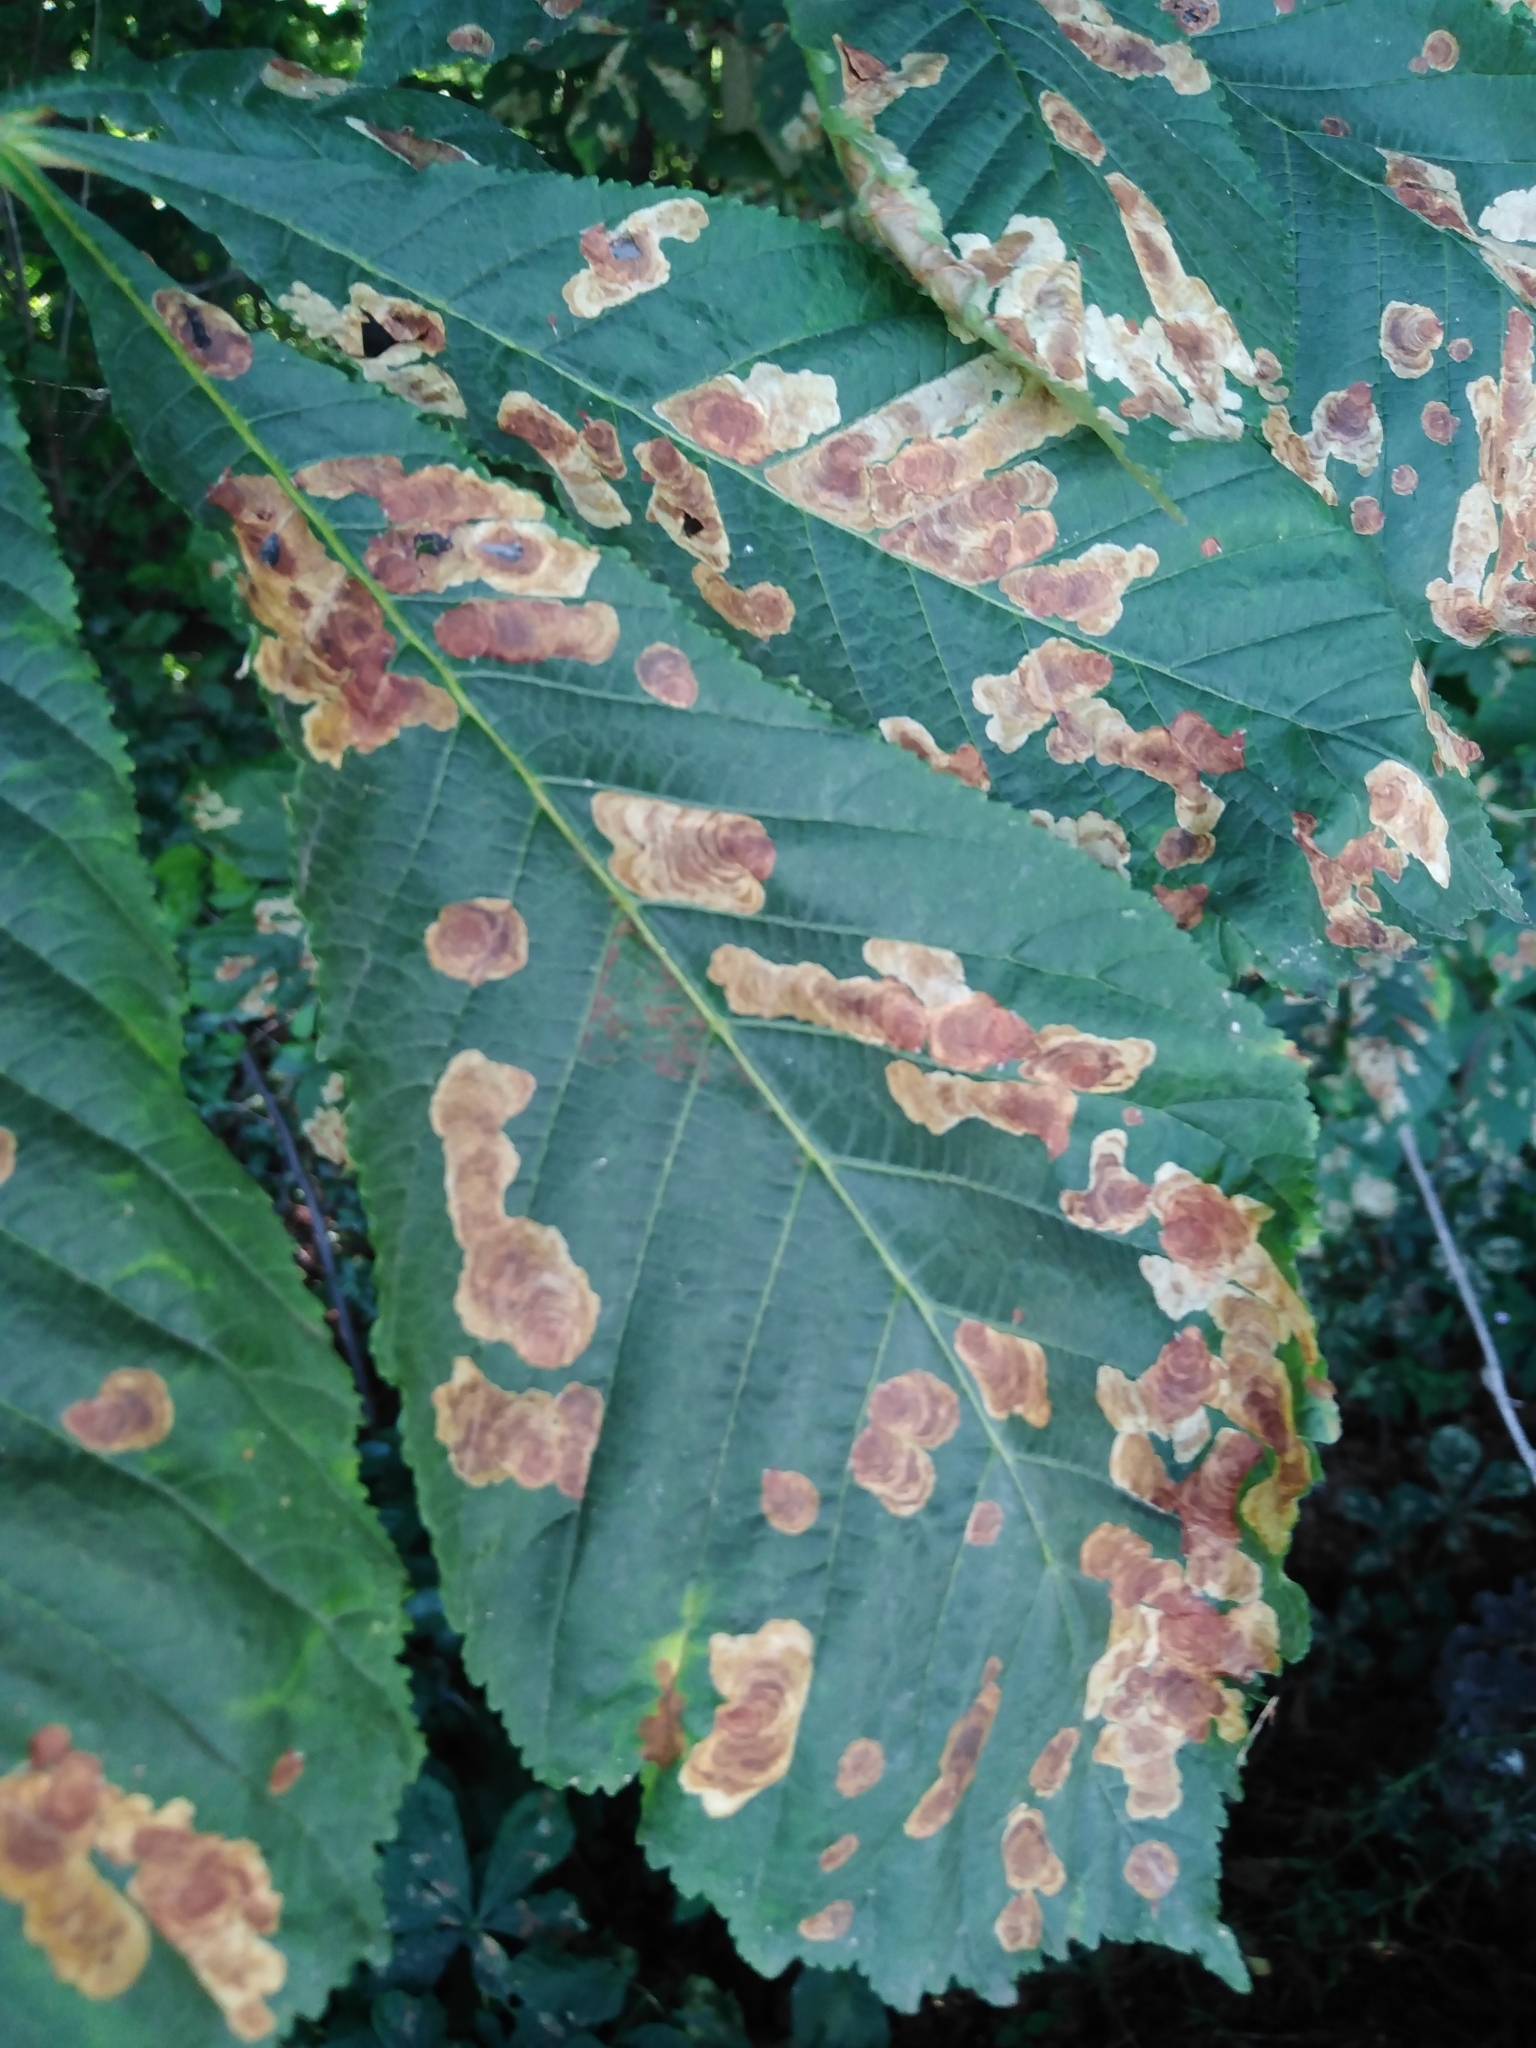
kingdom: Animalia
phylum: Arthropoda
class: Insecta
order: Lepidoptera
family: Gracillariidae
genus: Cameraria
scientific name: Cameraria ohridella
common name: Horse-chestnut leaf-miner
